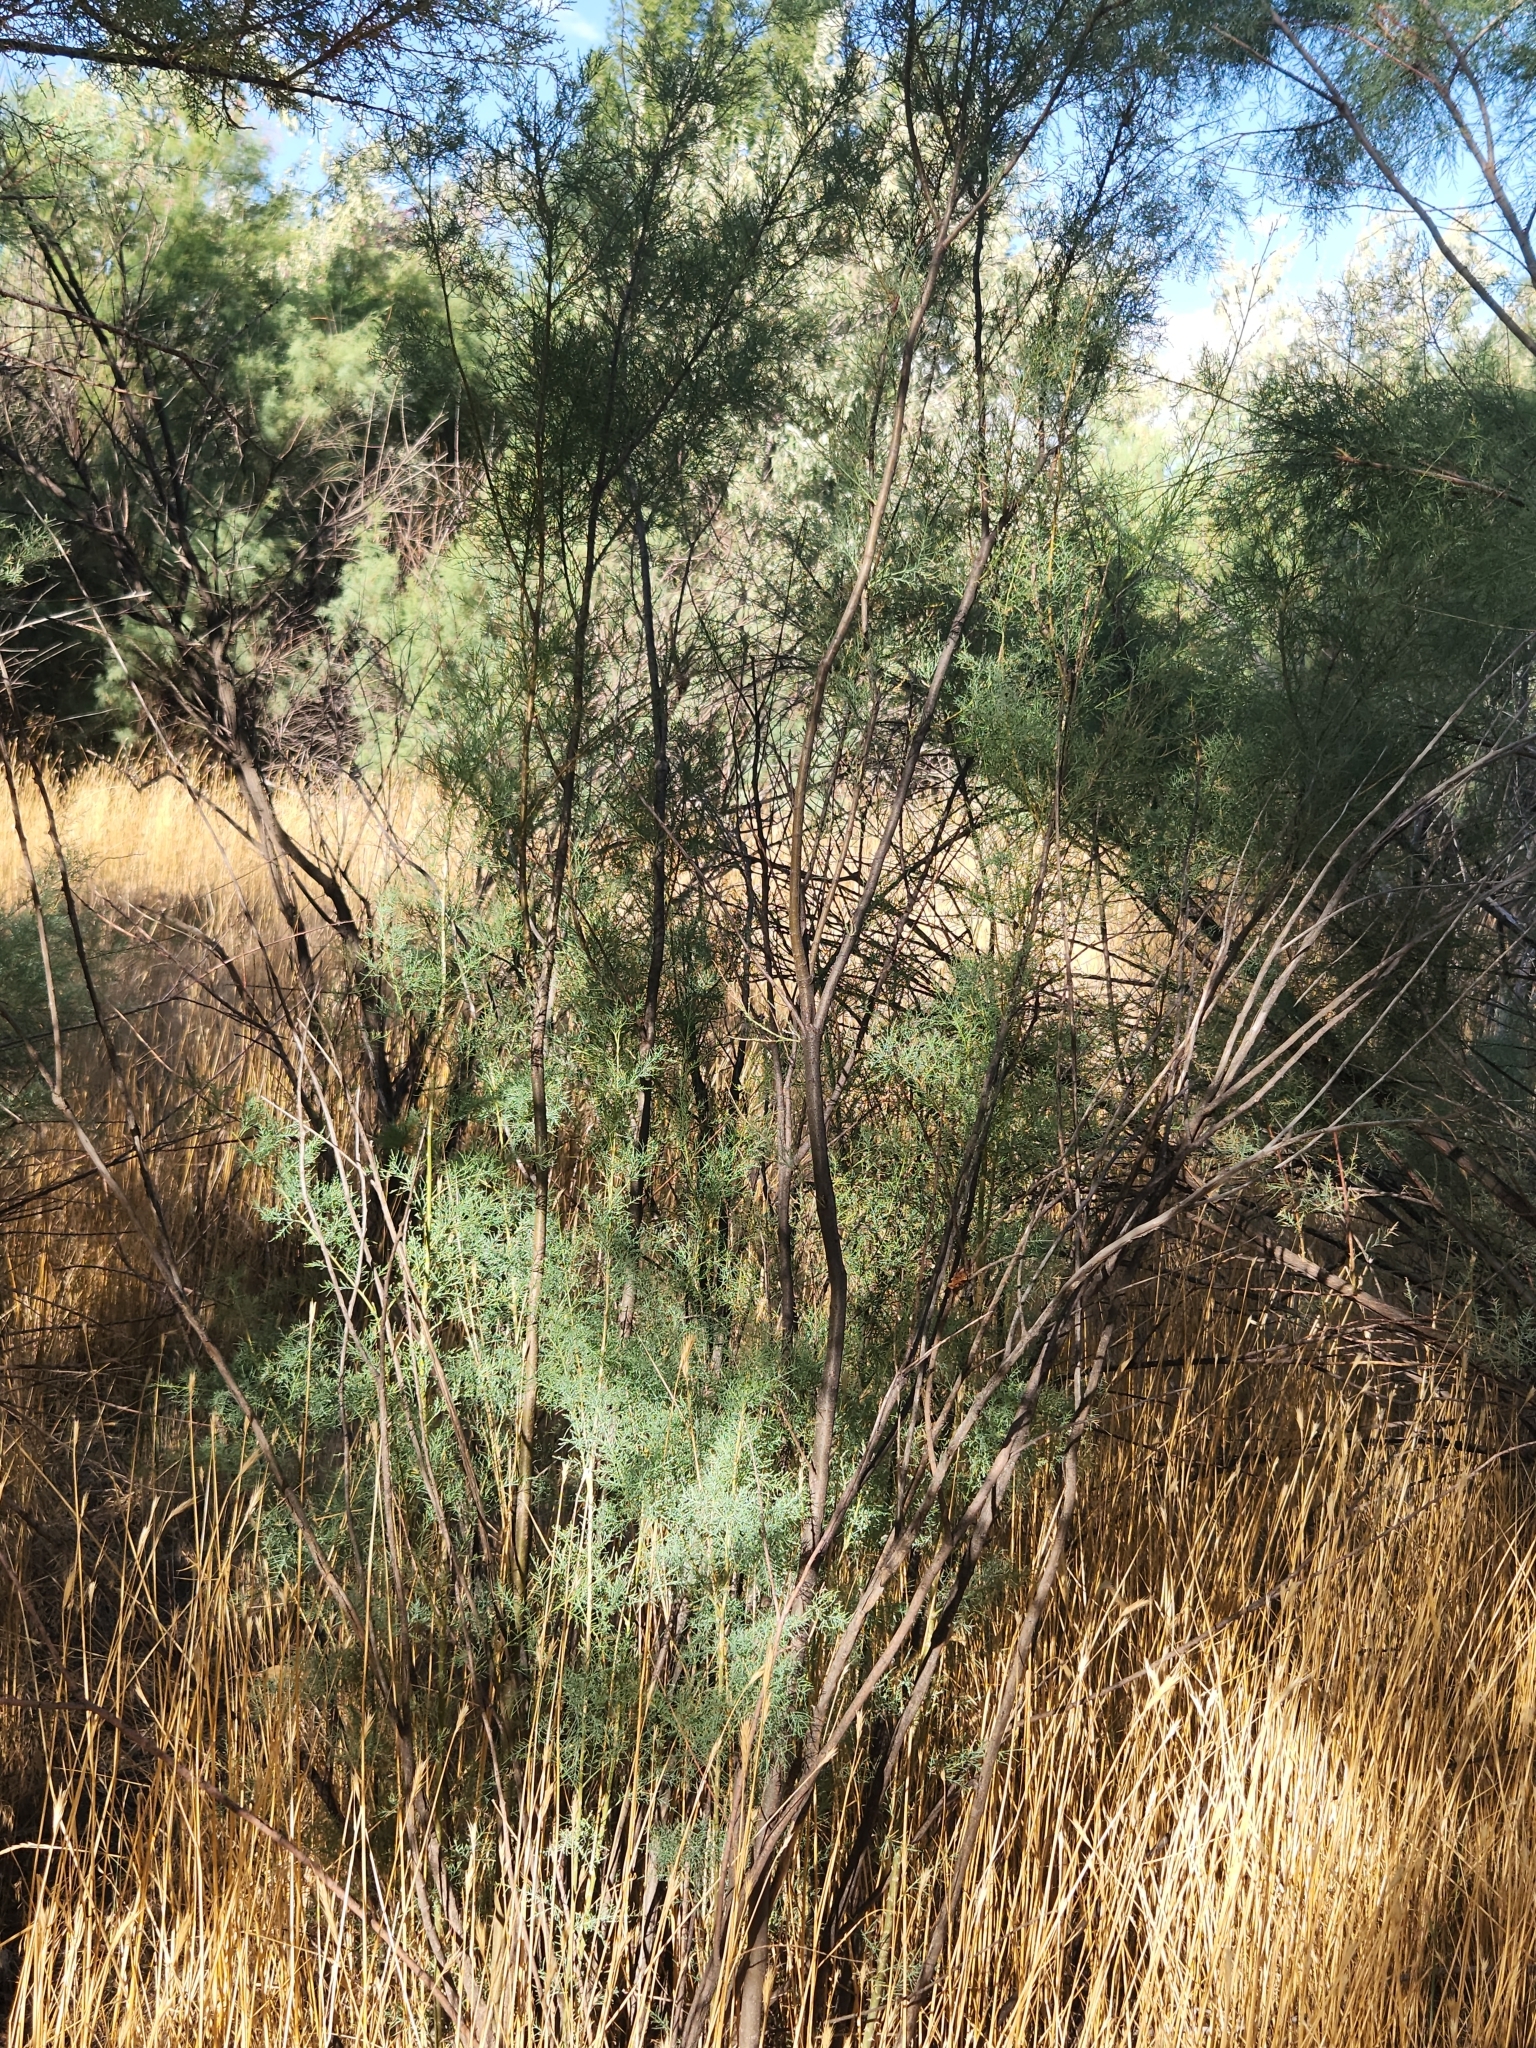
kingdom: Plantae
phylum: Tracheophyta
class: Magnoliopsida
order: Caryophyllales
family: Tamaricaceae
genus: Tamarix
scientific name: Tamarix
